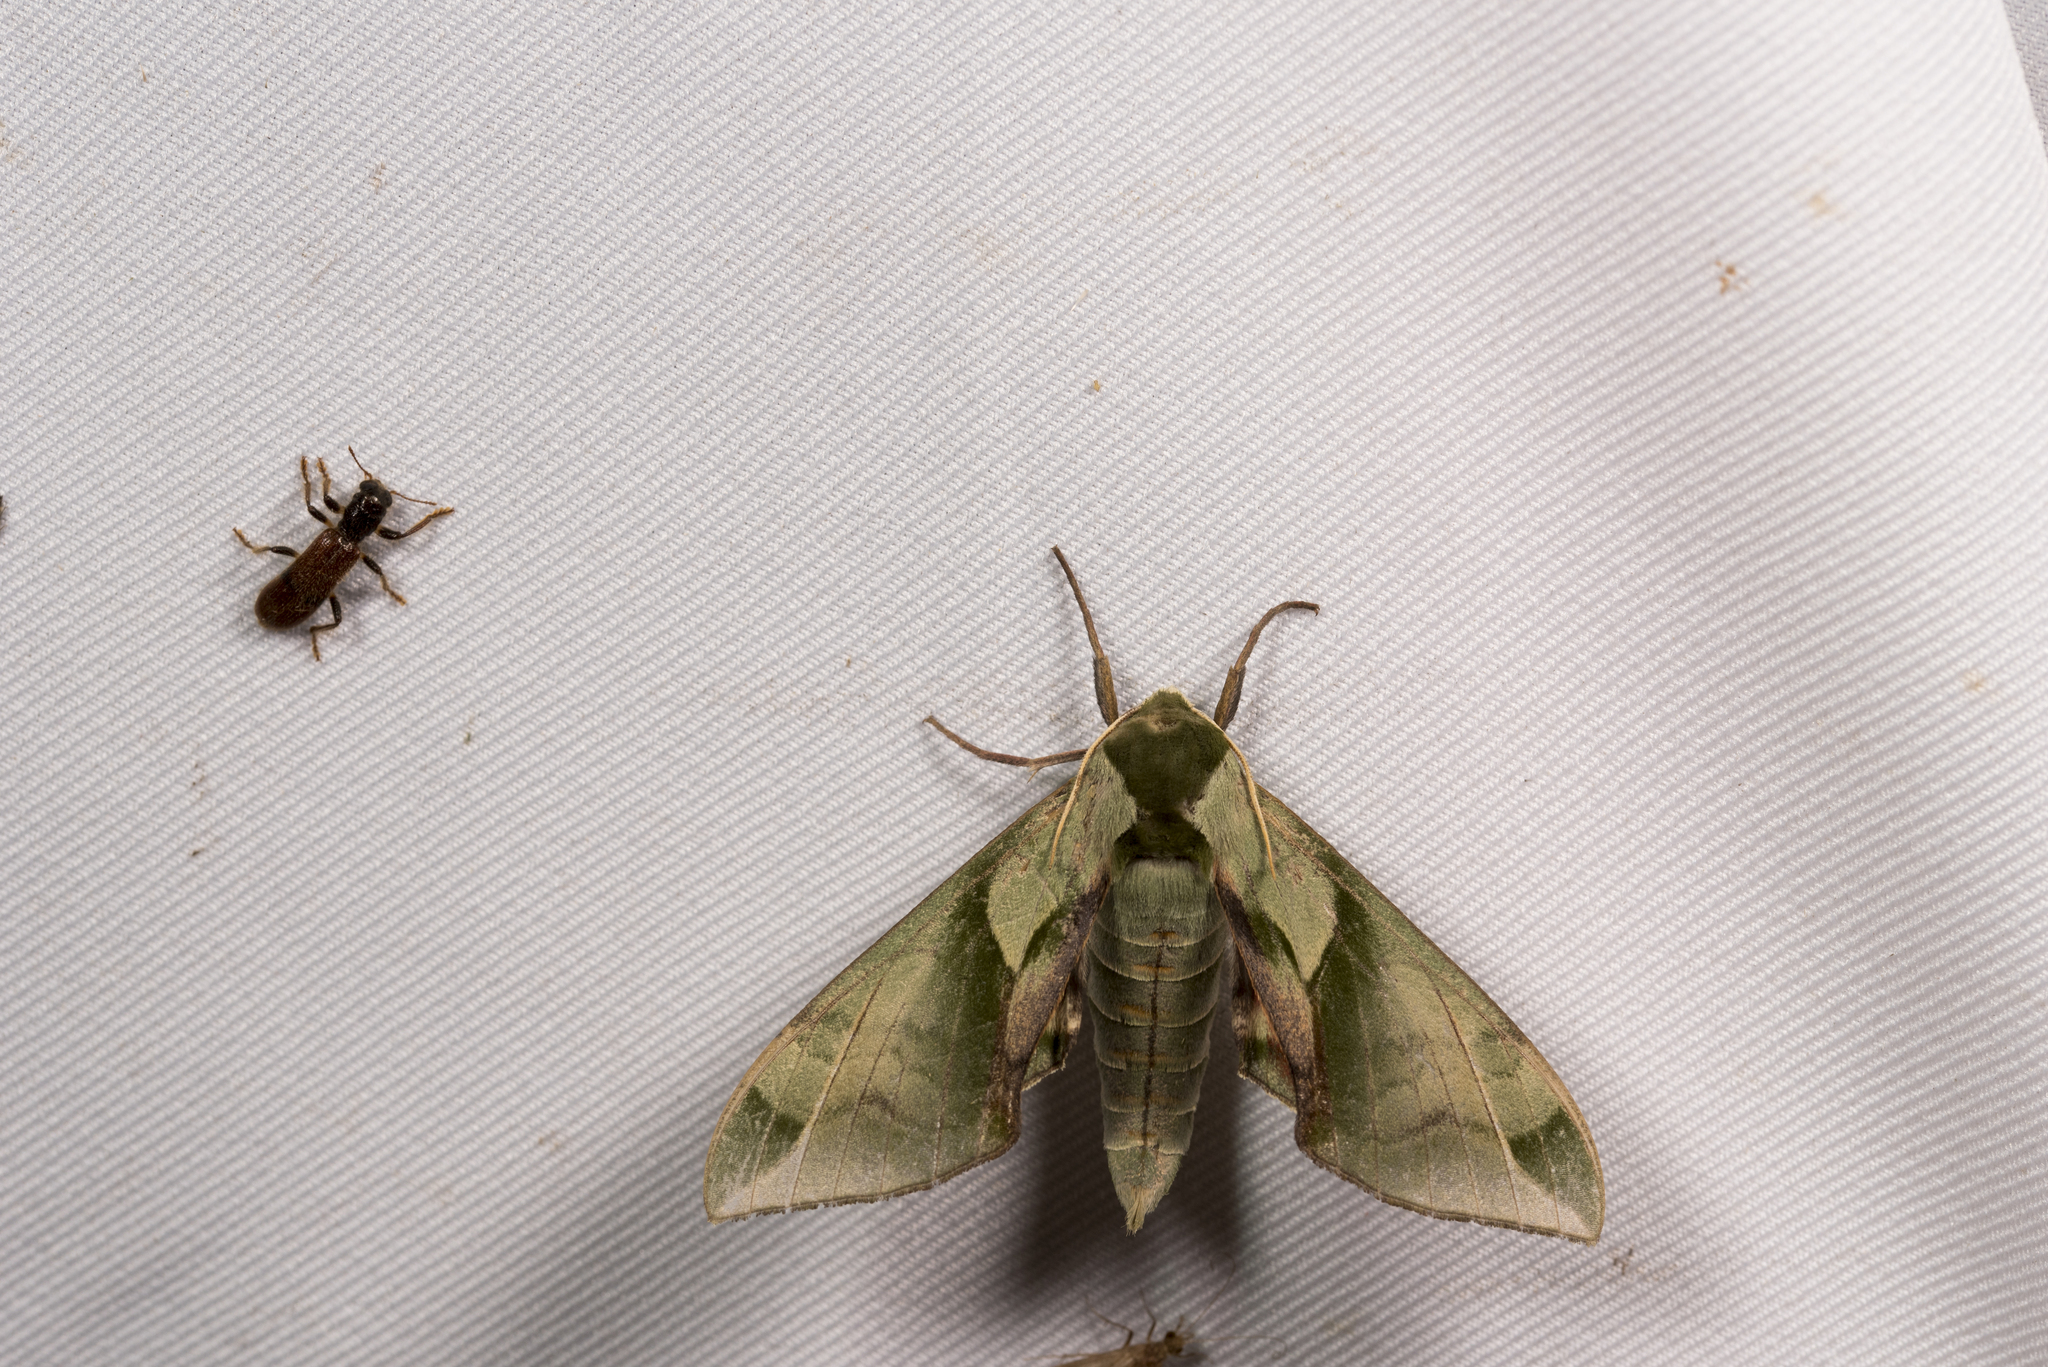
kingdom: Animalia
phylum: Arthropoda
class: Insecta
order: Lepidoptera
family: Sphingidae
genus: Callambulyx
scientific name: Callambulyx tatarinovii
